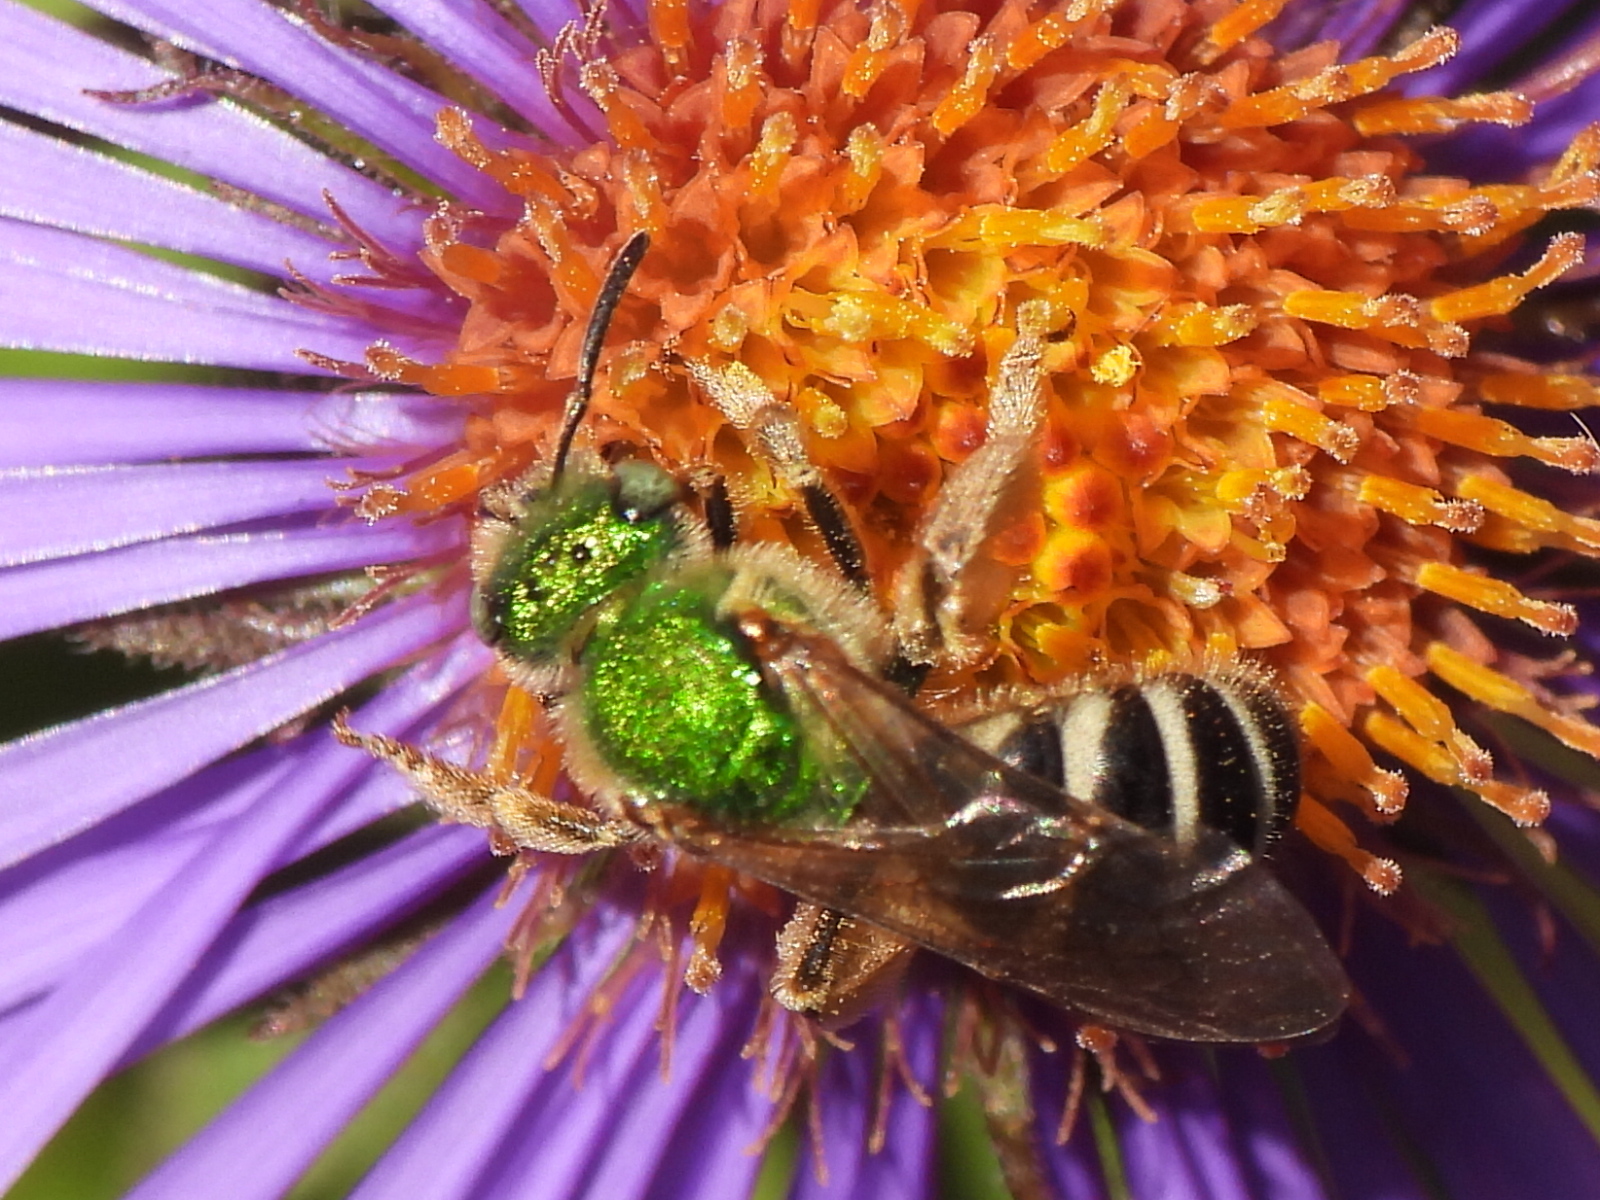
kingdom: Animalia
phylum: Arthropoda
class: Insecta
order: Hymenoptera
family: Halictidae
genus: Agapostemon
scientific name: Agapostemon virescens
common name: Bicolored striped sweat bee
